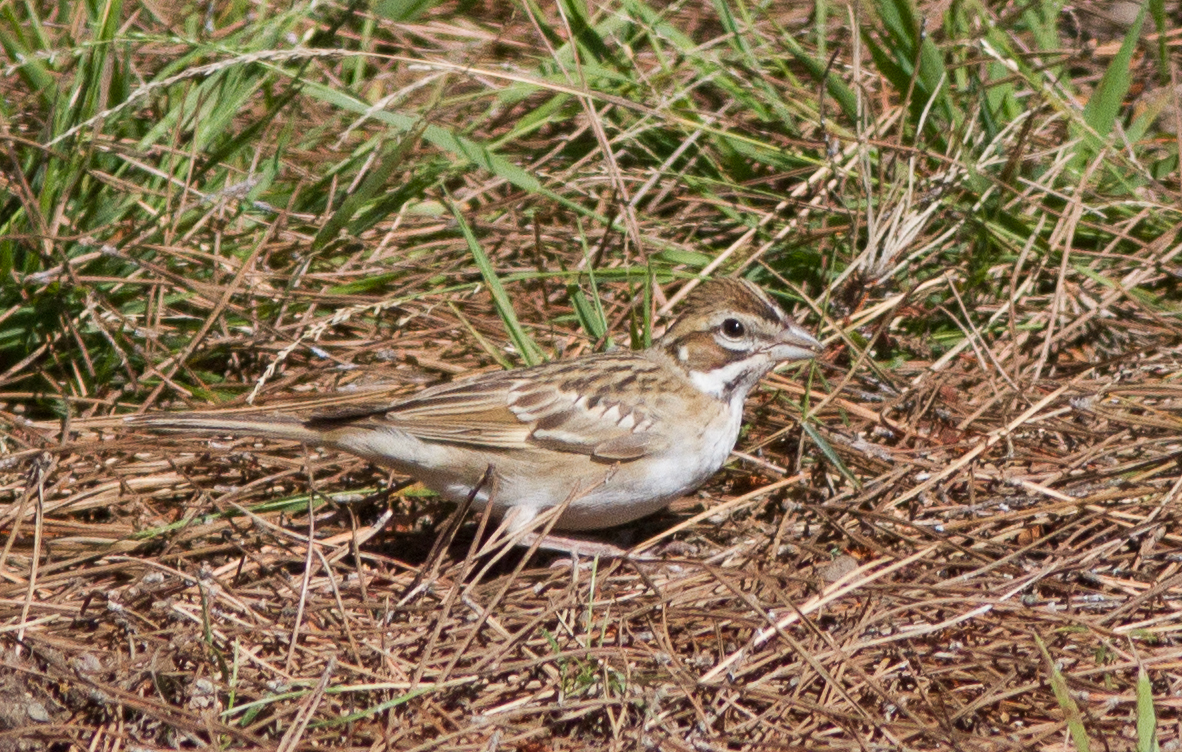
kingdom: Animalia
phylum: Chordata
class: Aves
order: Passeriformes
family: Passerellidae
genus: Chondestes
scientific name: Chondestes grammacus
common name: Lark sparrow
